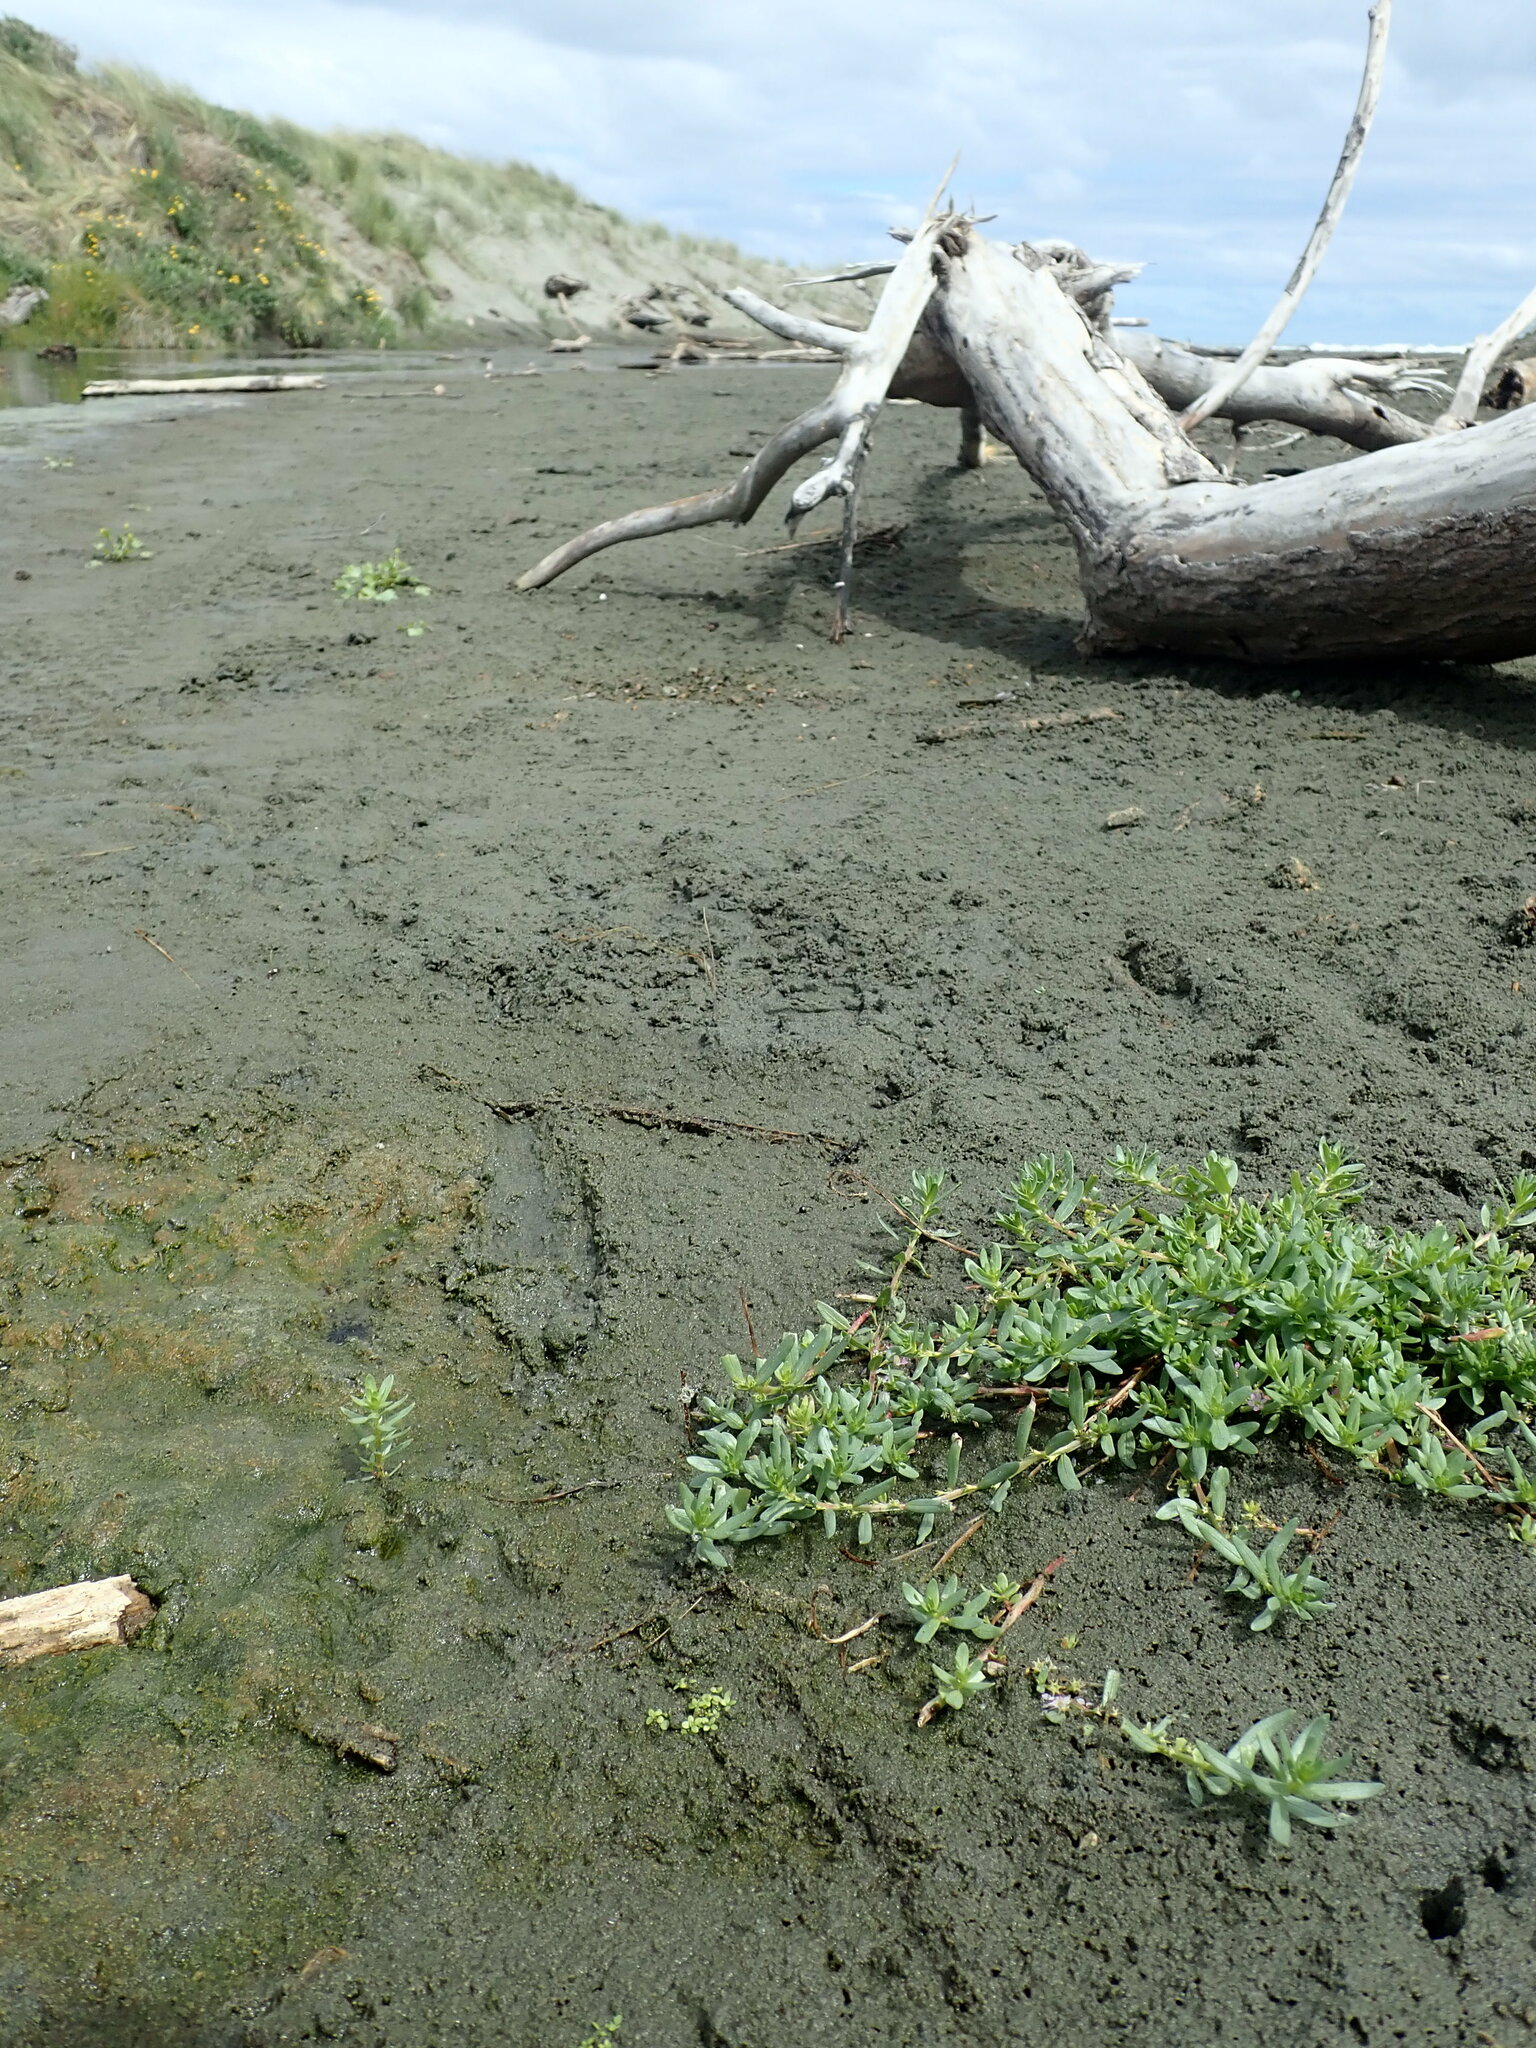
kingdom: Plantae
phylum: Tracheophyta
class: Magnoliopsida
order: Myrtales
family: Lythraceae
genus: Lythrum
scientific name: Lythrum hyssopifolia
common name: Grass-poly
